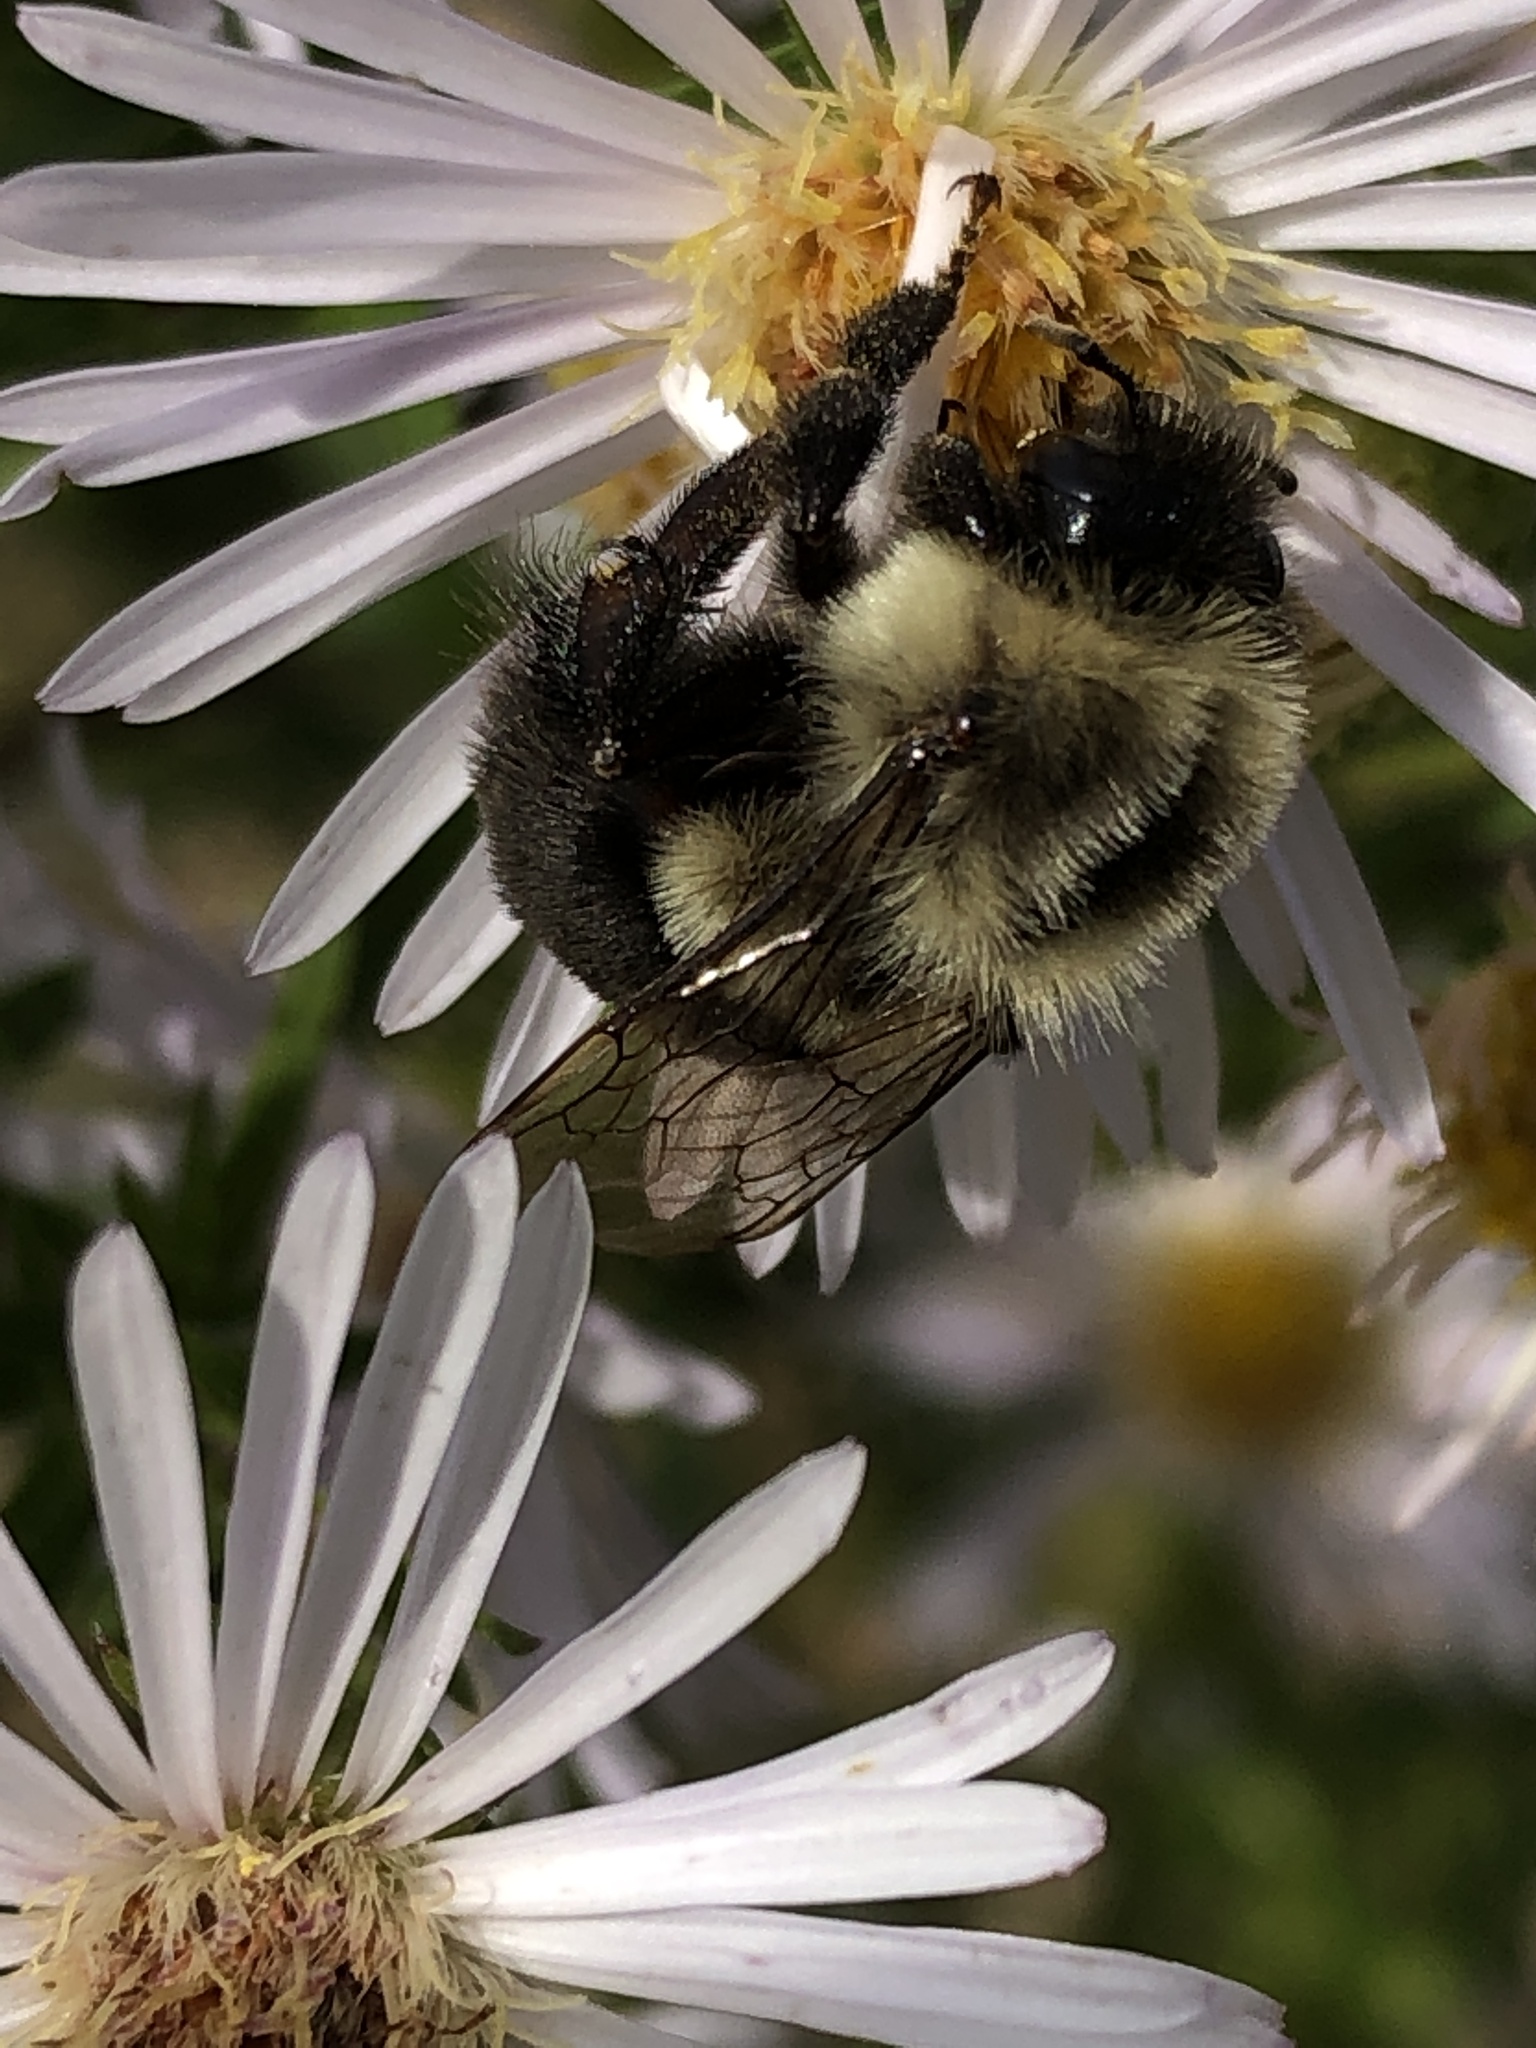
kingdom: Animalia
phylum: Arthropoda
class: Insecta
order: Hymenoptera
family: Apidae
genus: Bombus
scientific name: Bombus impatiens
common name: Common eastern bumble bee
